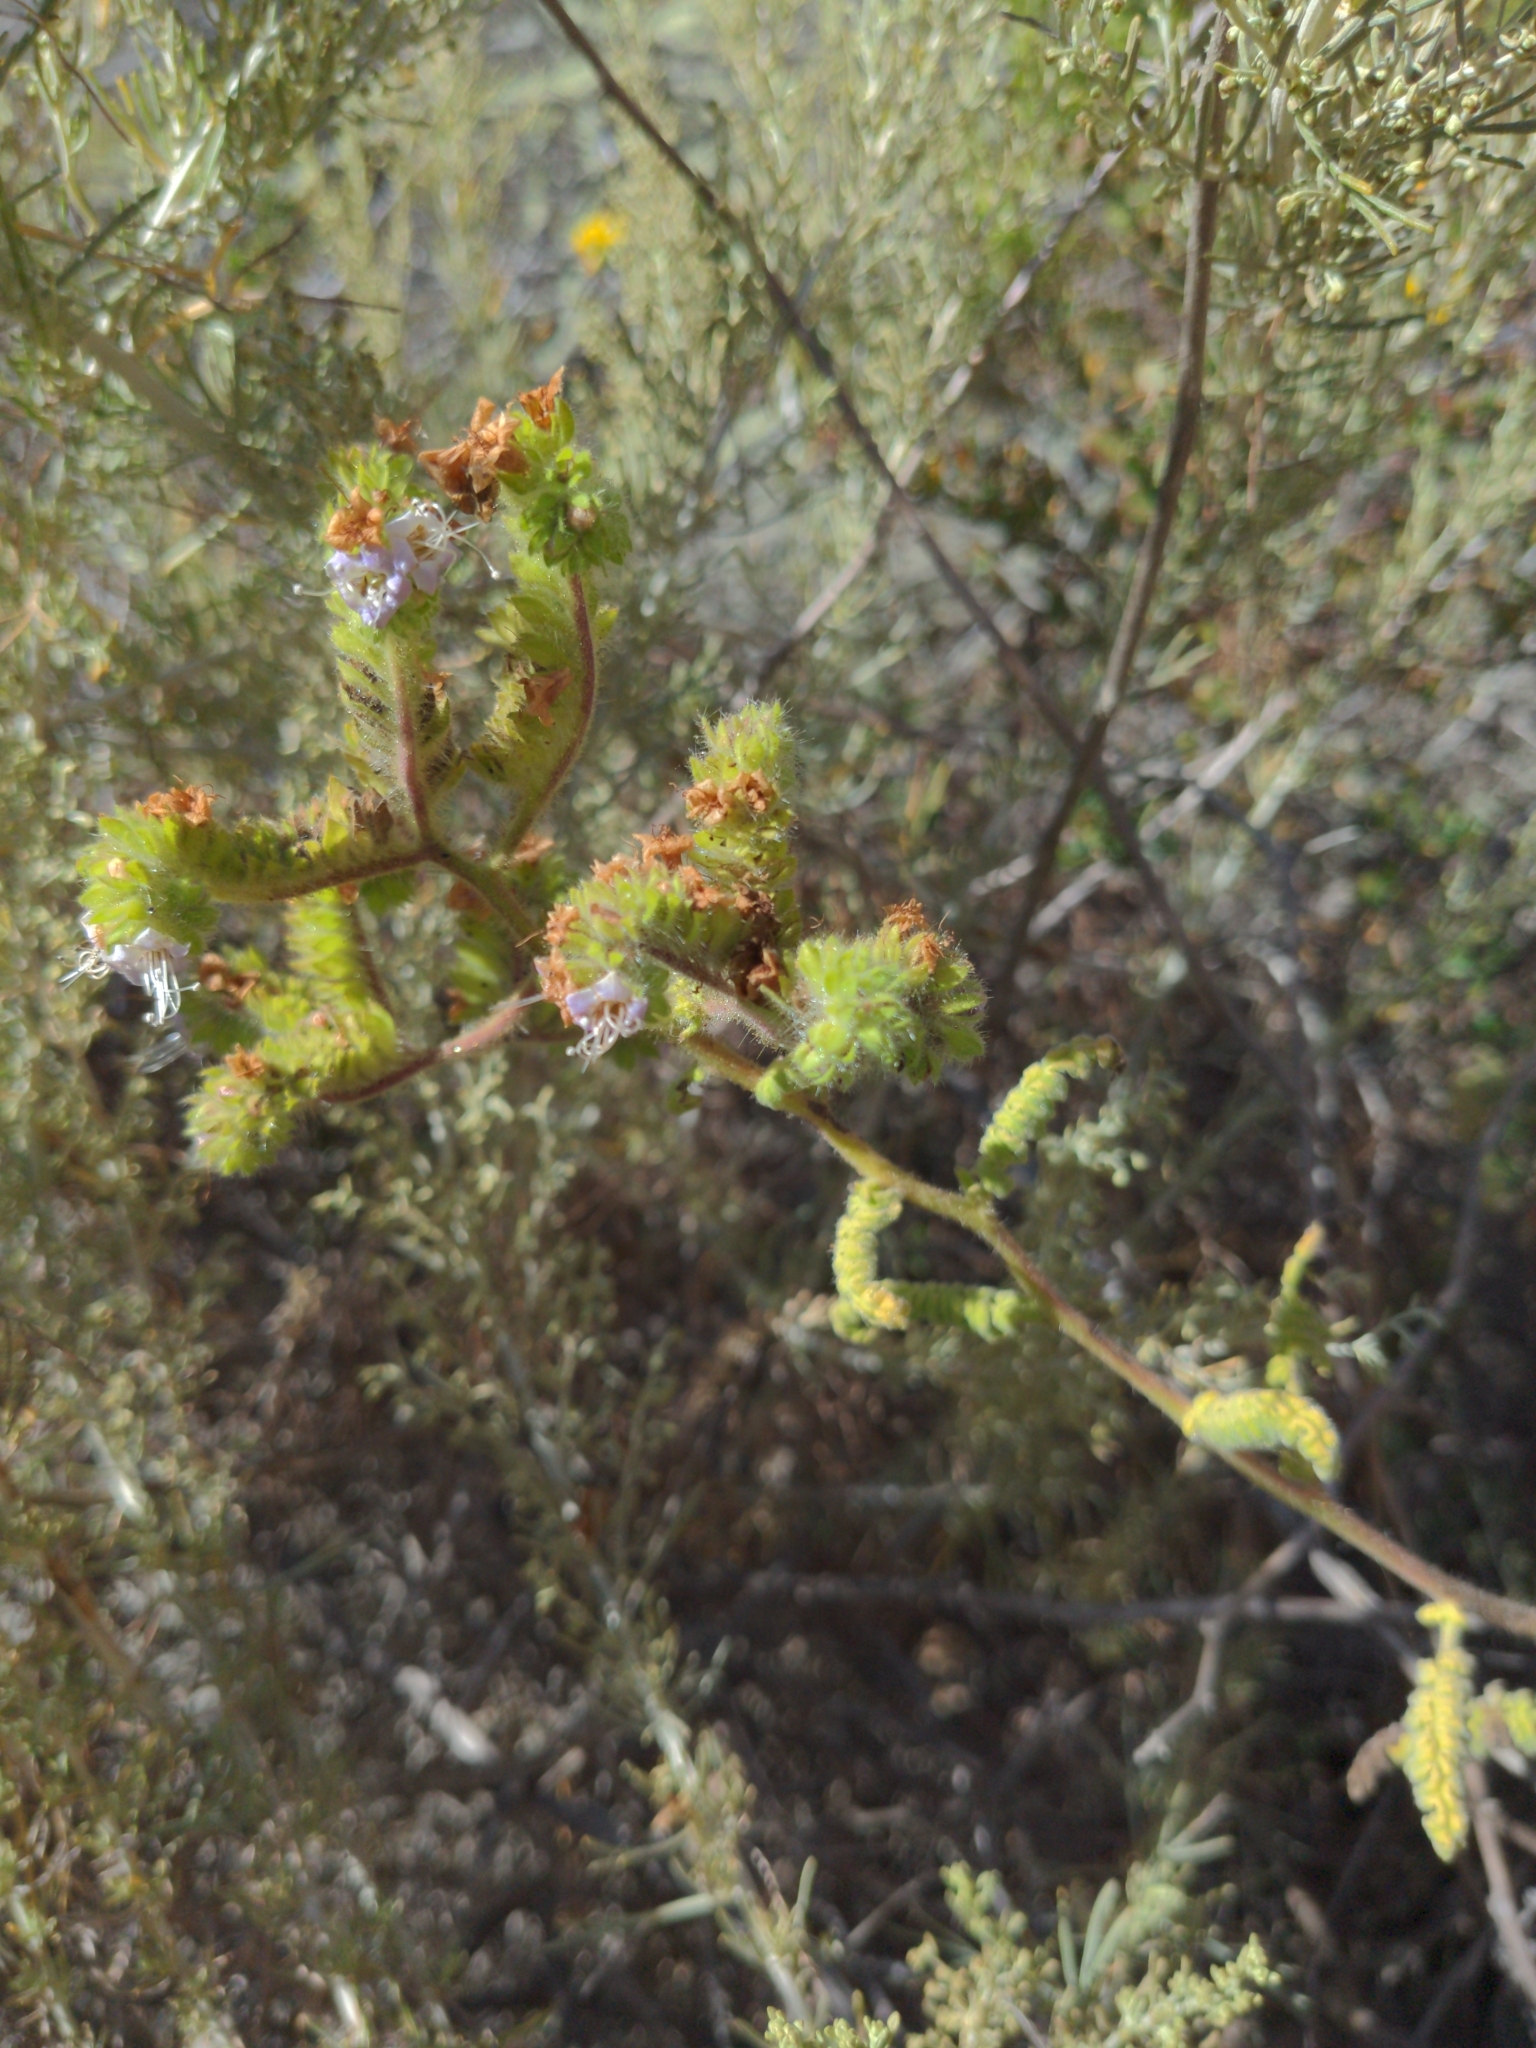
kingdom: Plantae
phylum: Tracheophyta
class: Magnoliopsida
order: Boraginales
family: Hydrophyllaceae
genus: Phacelia
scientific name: Phacelia ramosissima
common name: Branching phacelia
